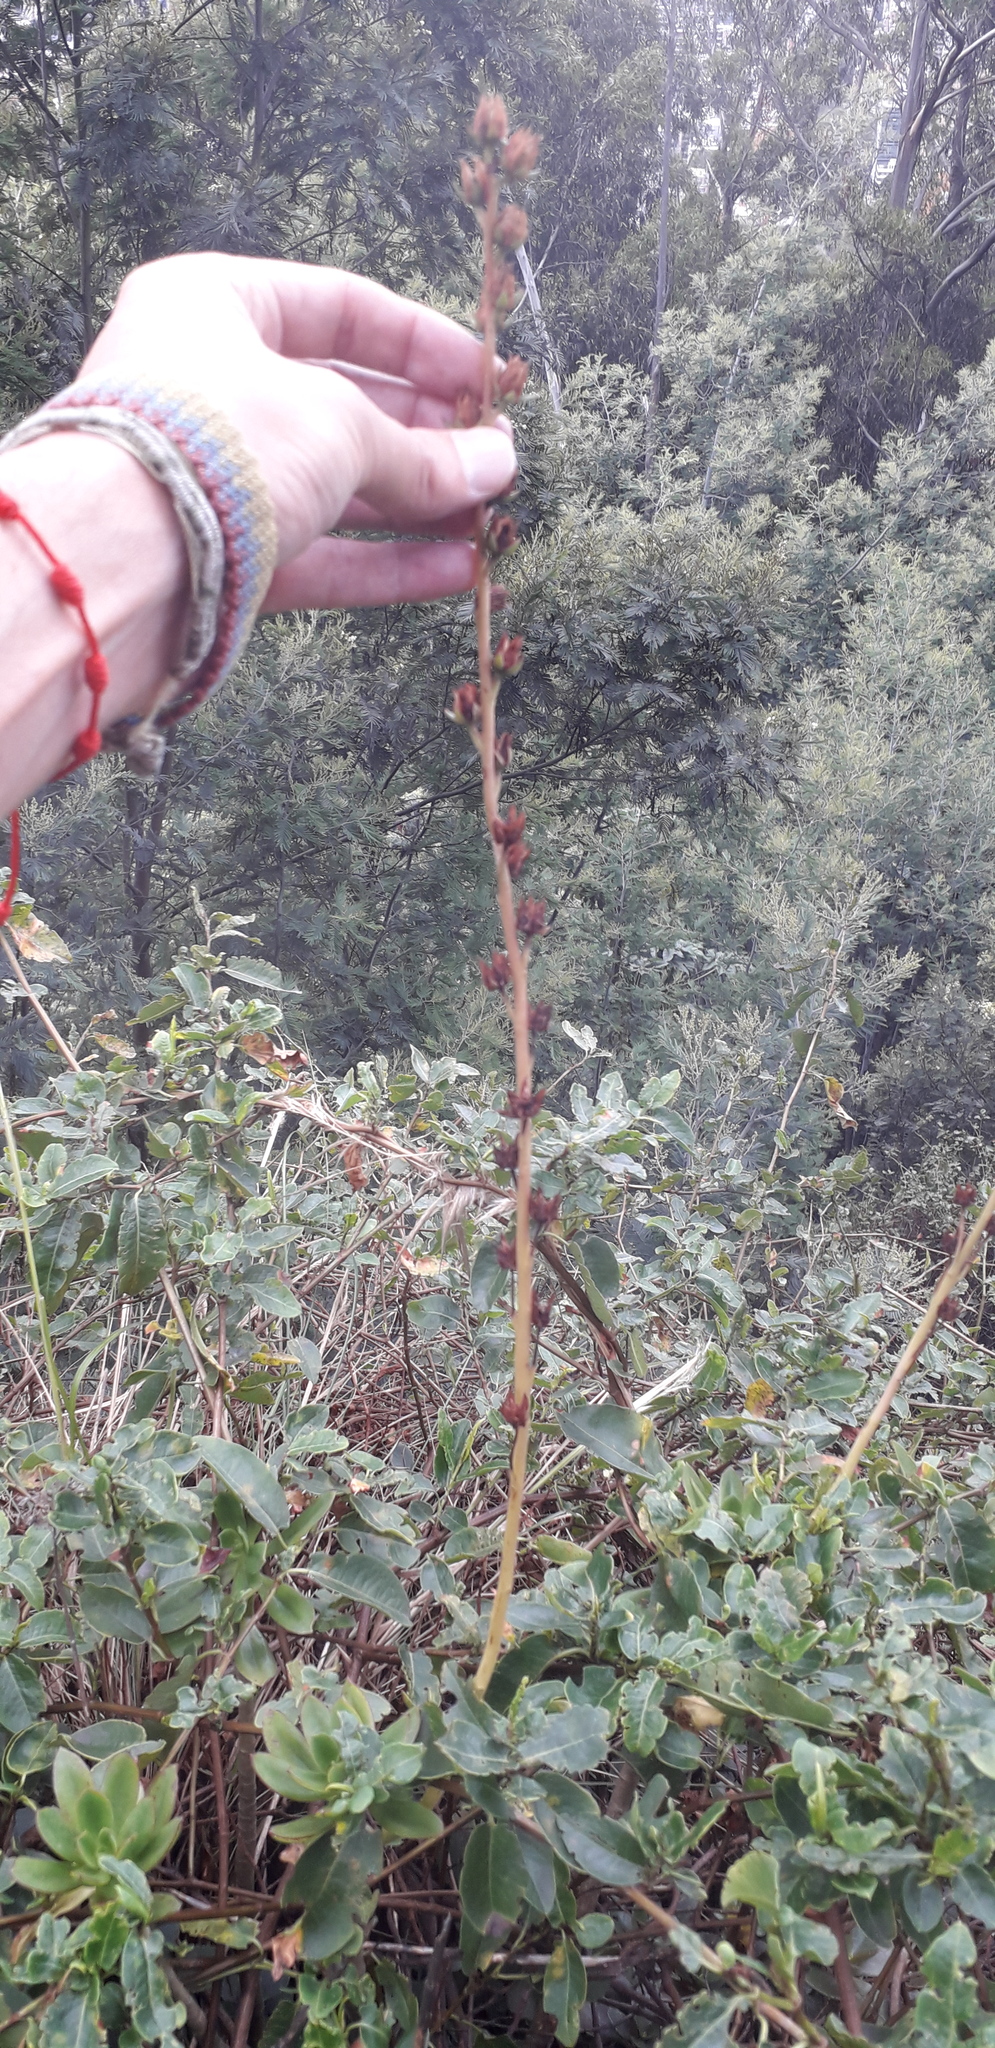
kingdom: Plantae
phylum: Tracheophyta
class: Magnoliopsida
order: Saxifragales
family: Crassulaceae
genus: Echeveria
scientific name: Echeveria bicolor
